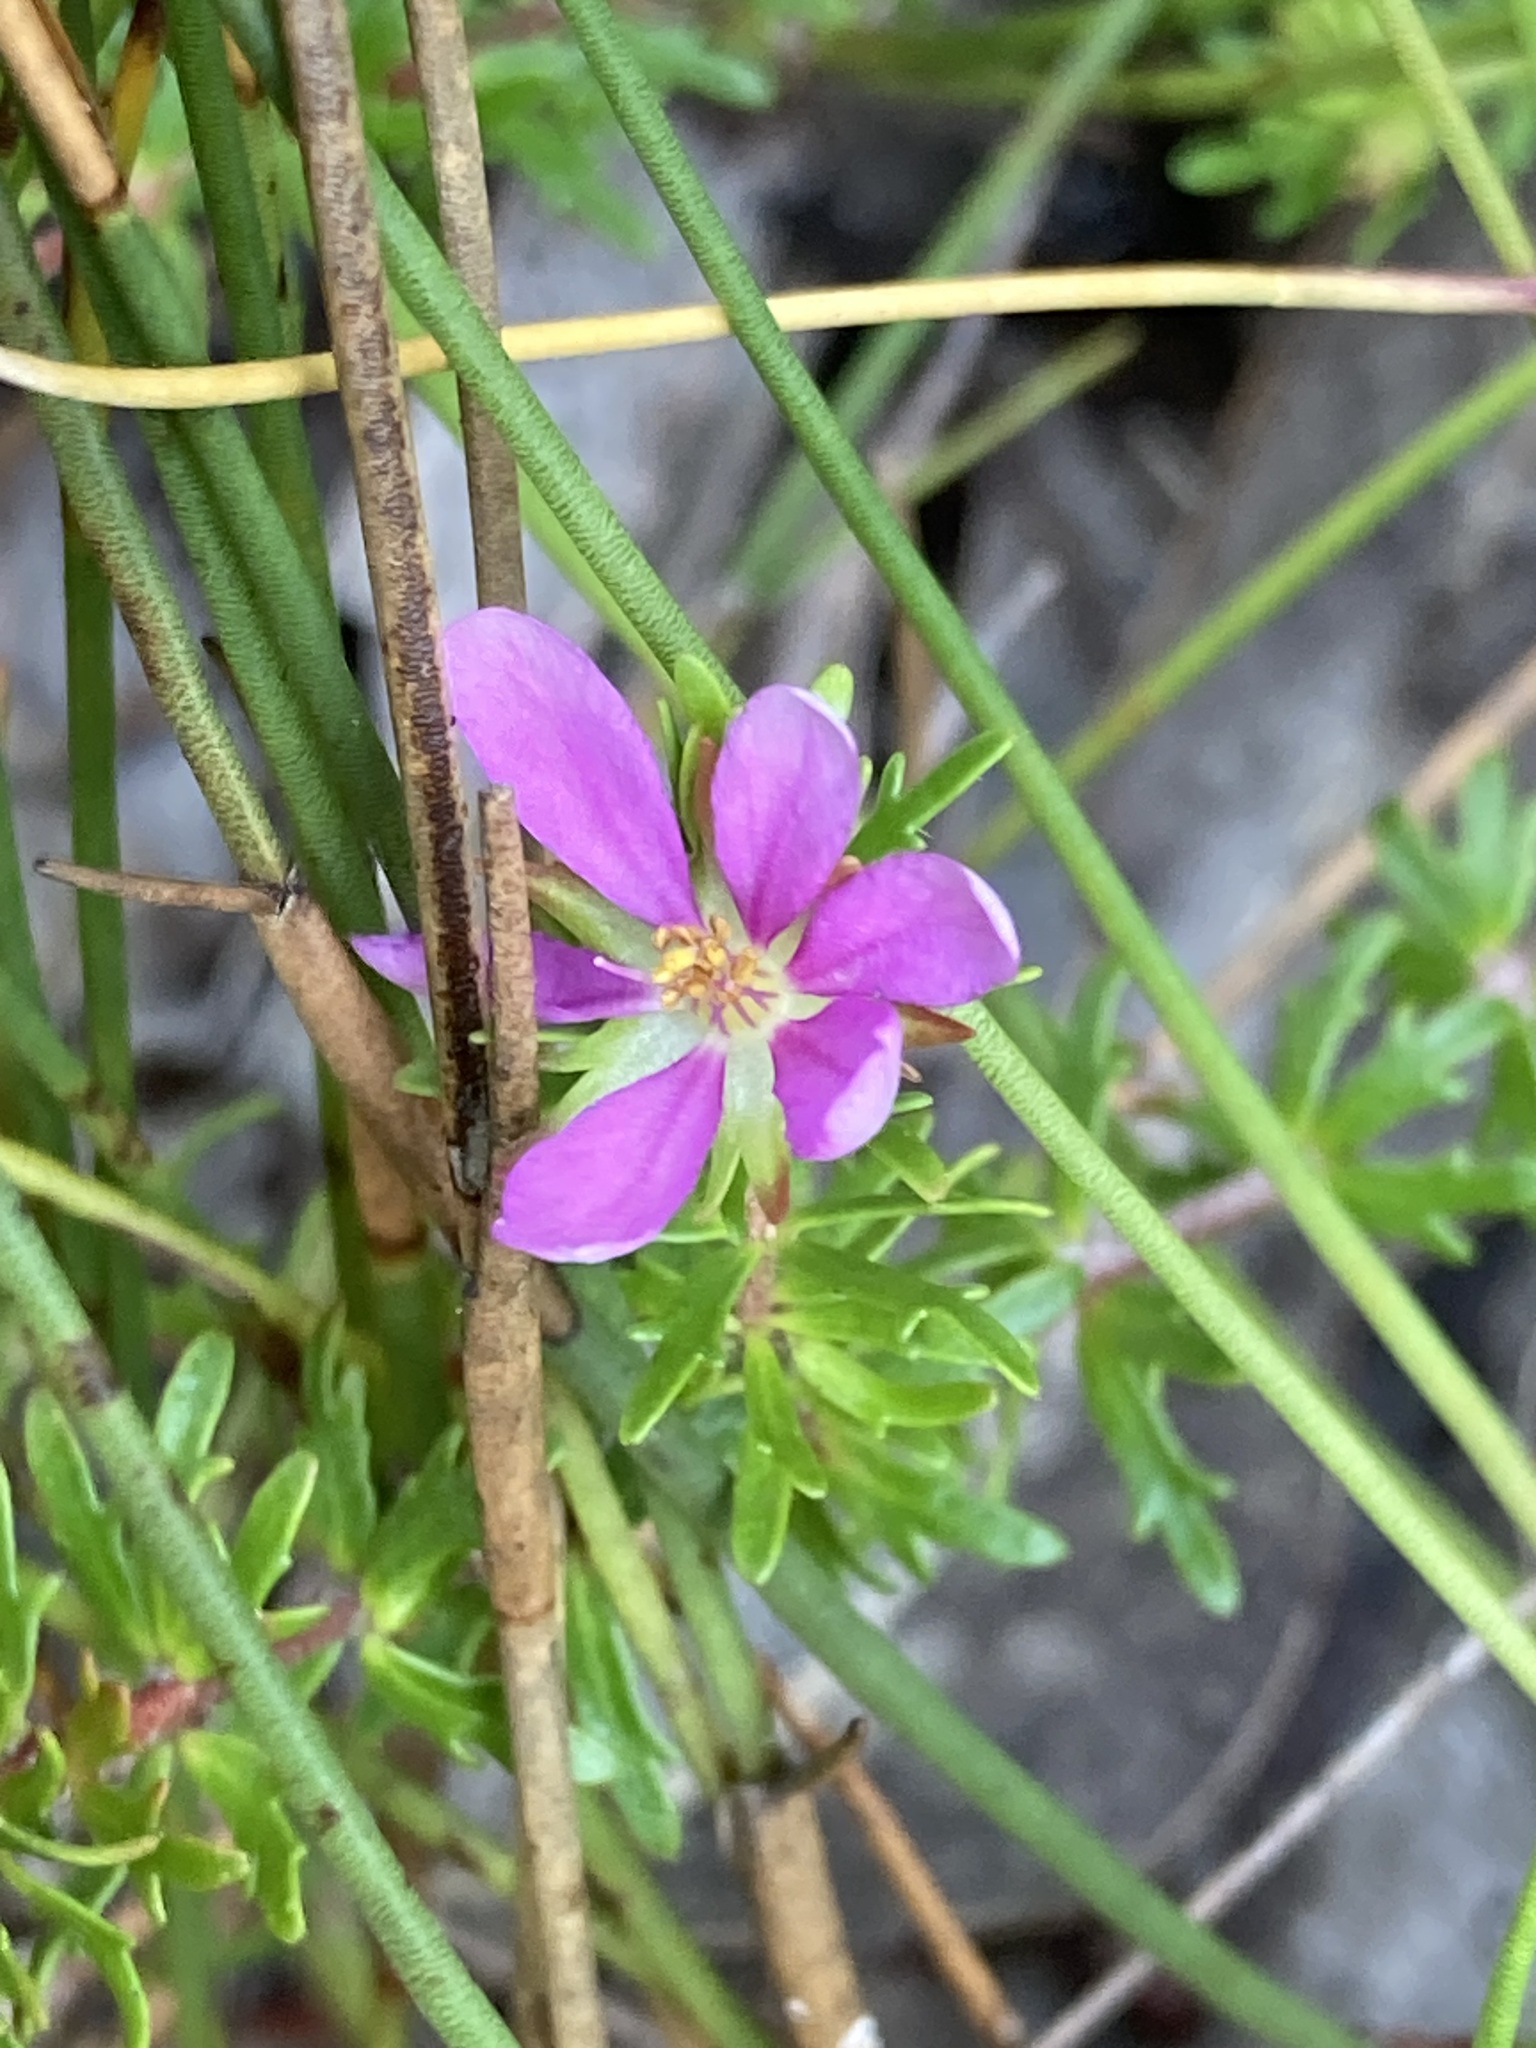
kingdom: Plantae
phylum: Tracheophyta
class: Magnoliopsida
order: Oxalidales
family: Cunoniaceae
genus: Bauera
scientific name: Bauera capitata
